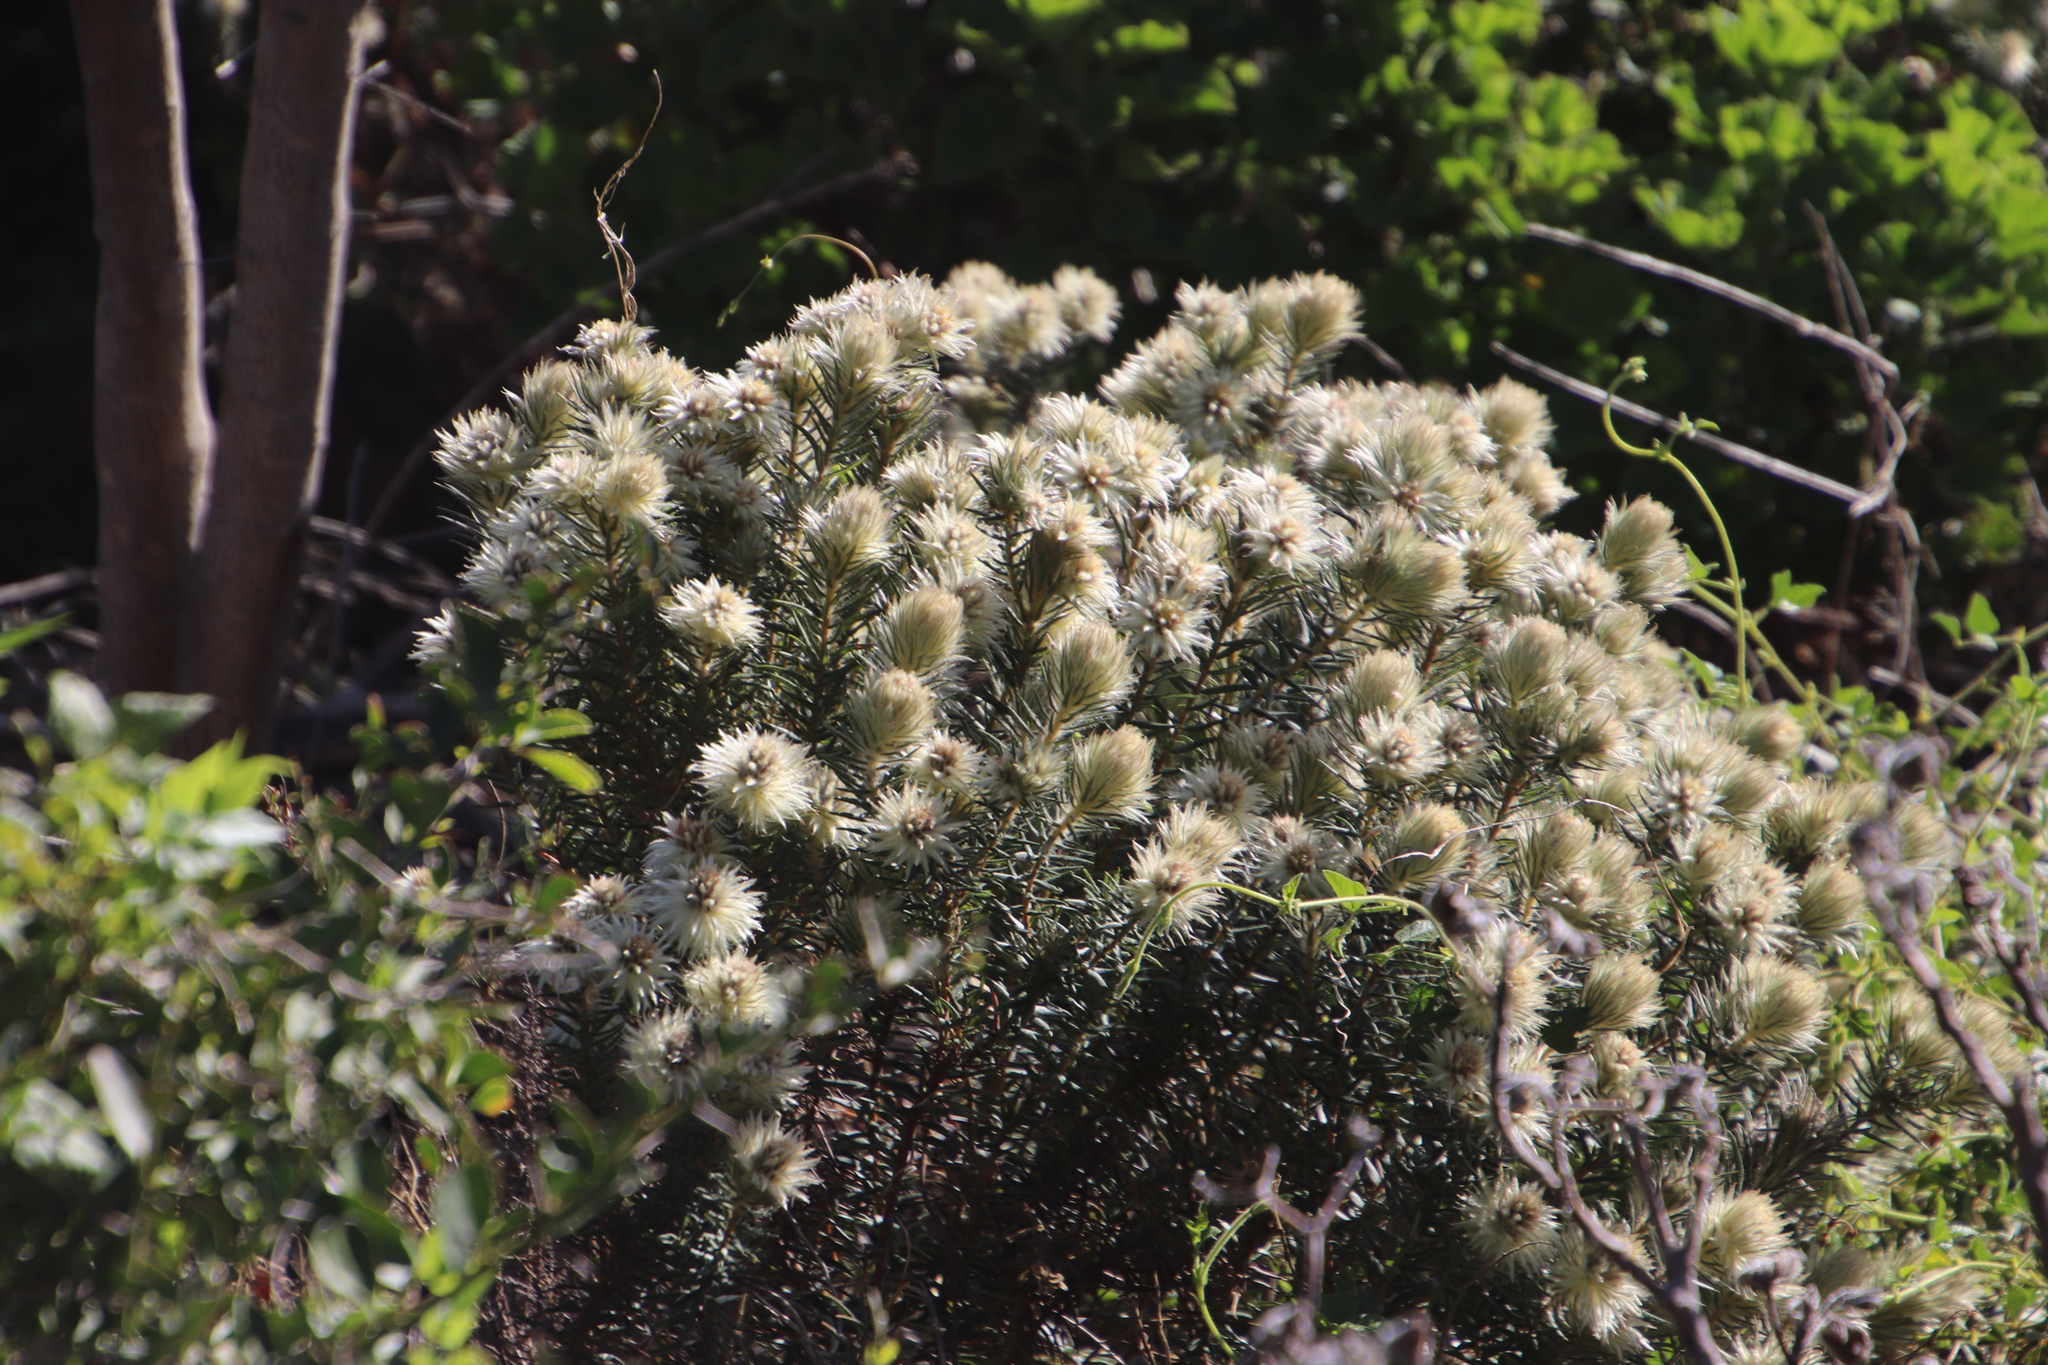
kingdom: Plantae
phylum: Tracheophyta
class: Magnoliopsida
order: Rosales
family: Rhamnaceae
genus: Phylica
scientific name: Phylica pubescens
